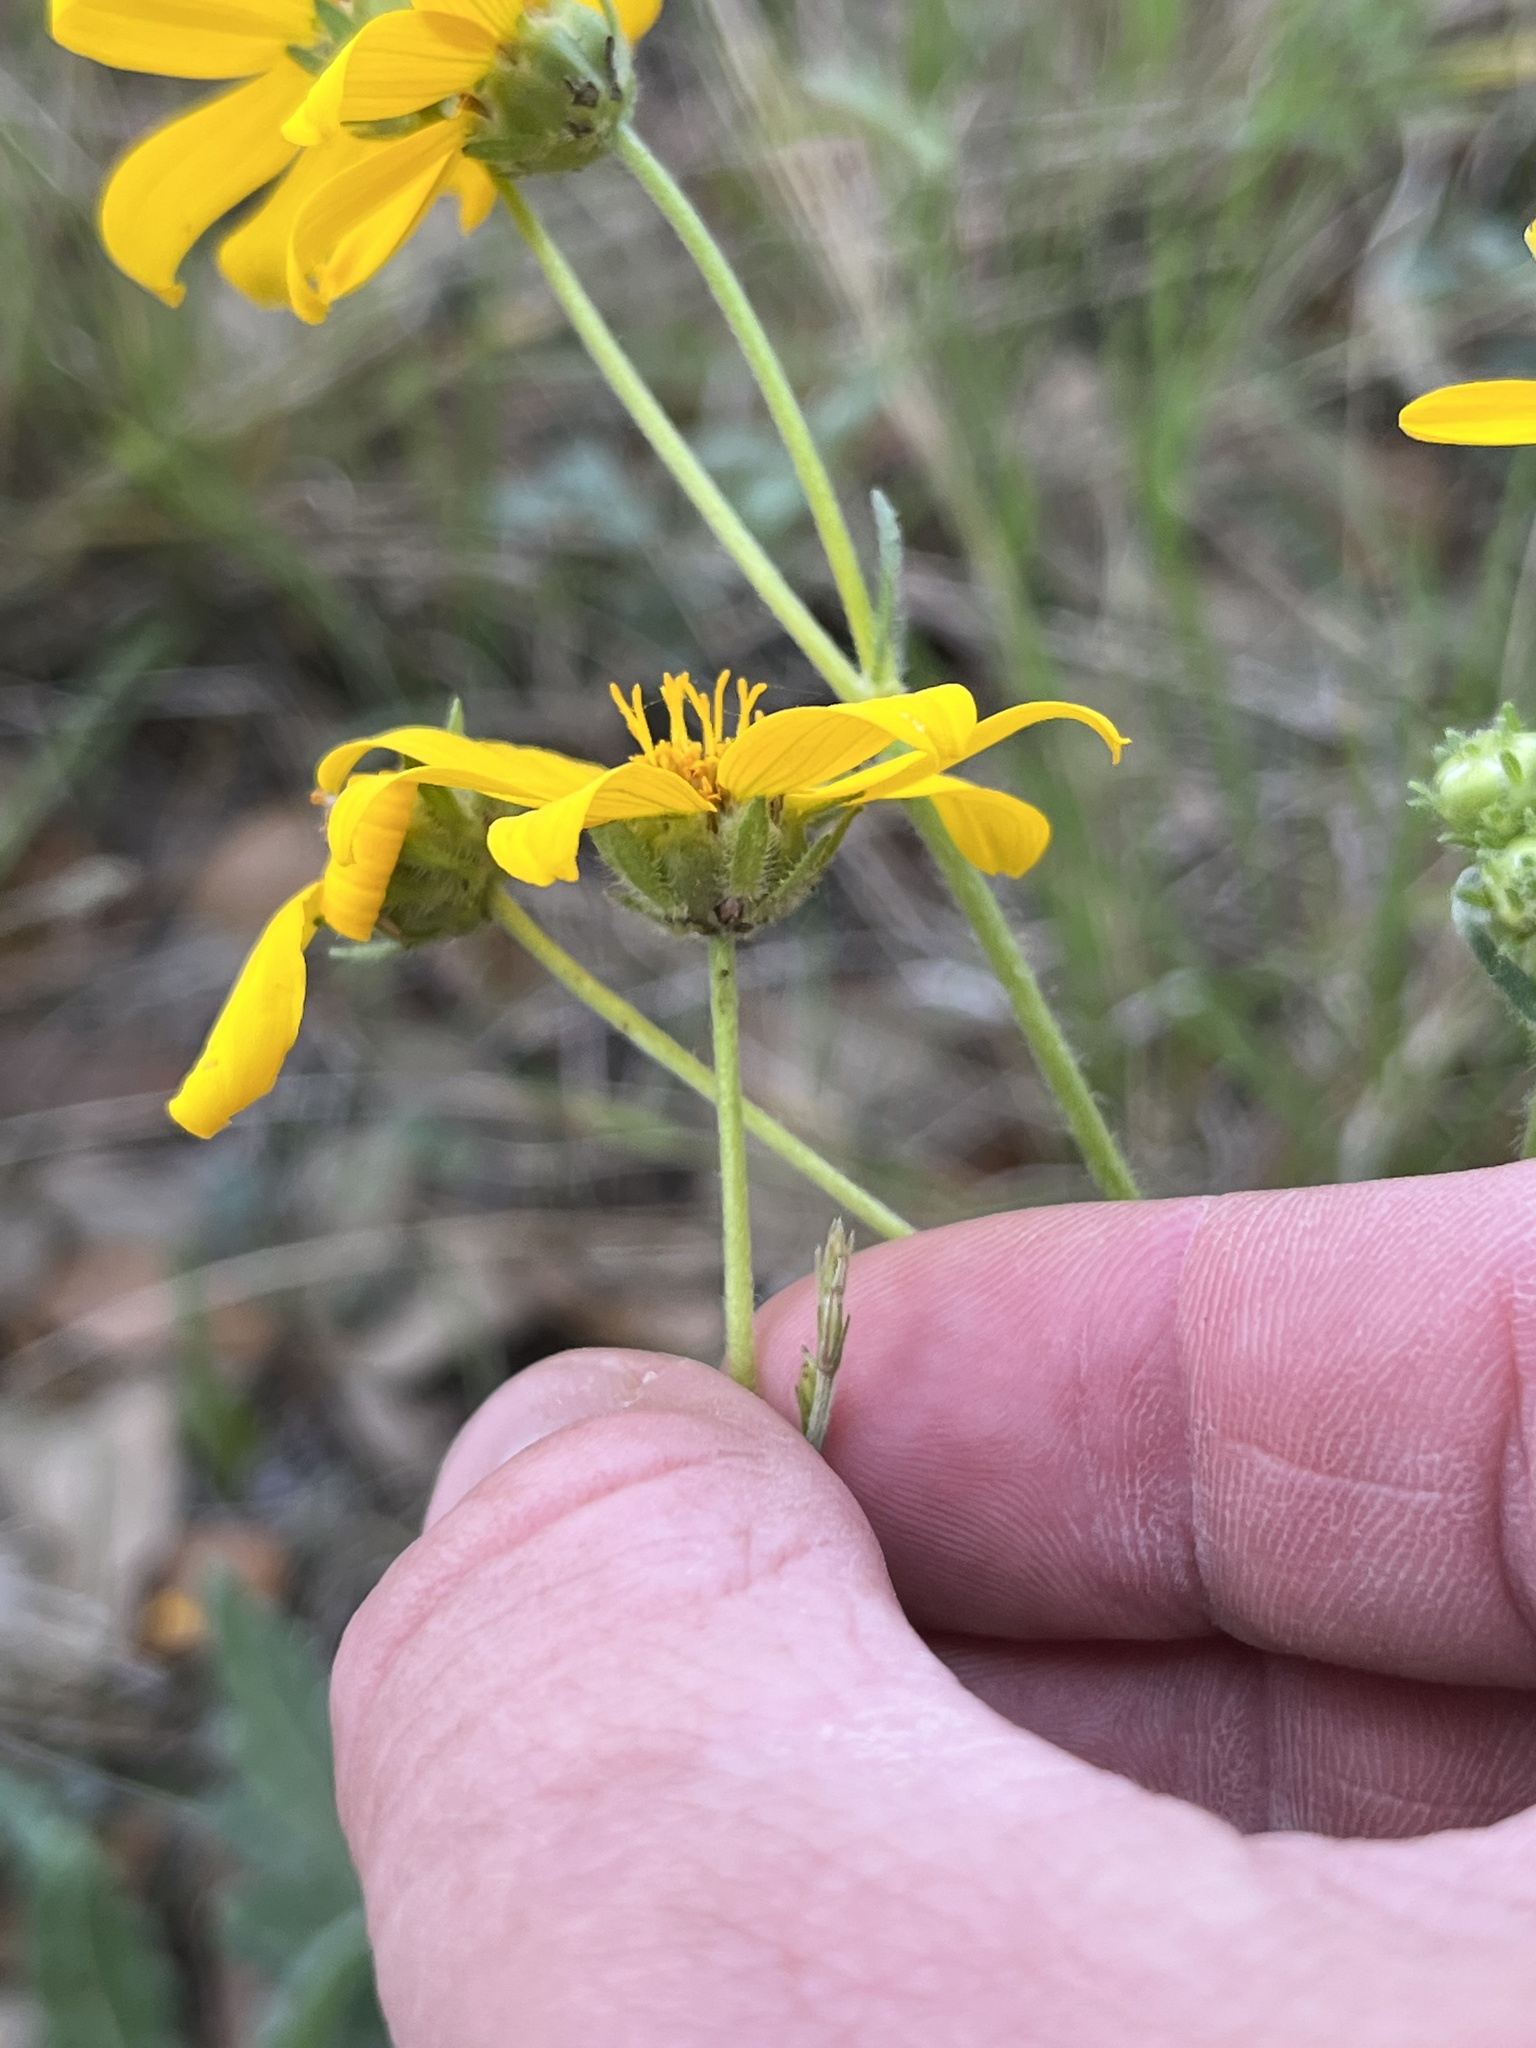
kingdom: Plantae
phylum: Tracheophyta
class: Magnoliopsida
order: Asterales
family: Asteraceae
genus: Engelmannia
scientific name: Engelmannia peristenia
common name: Engelmann's daisy
